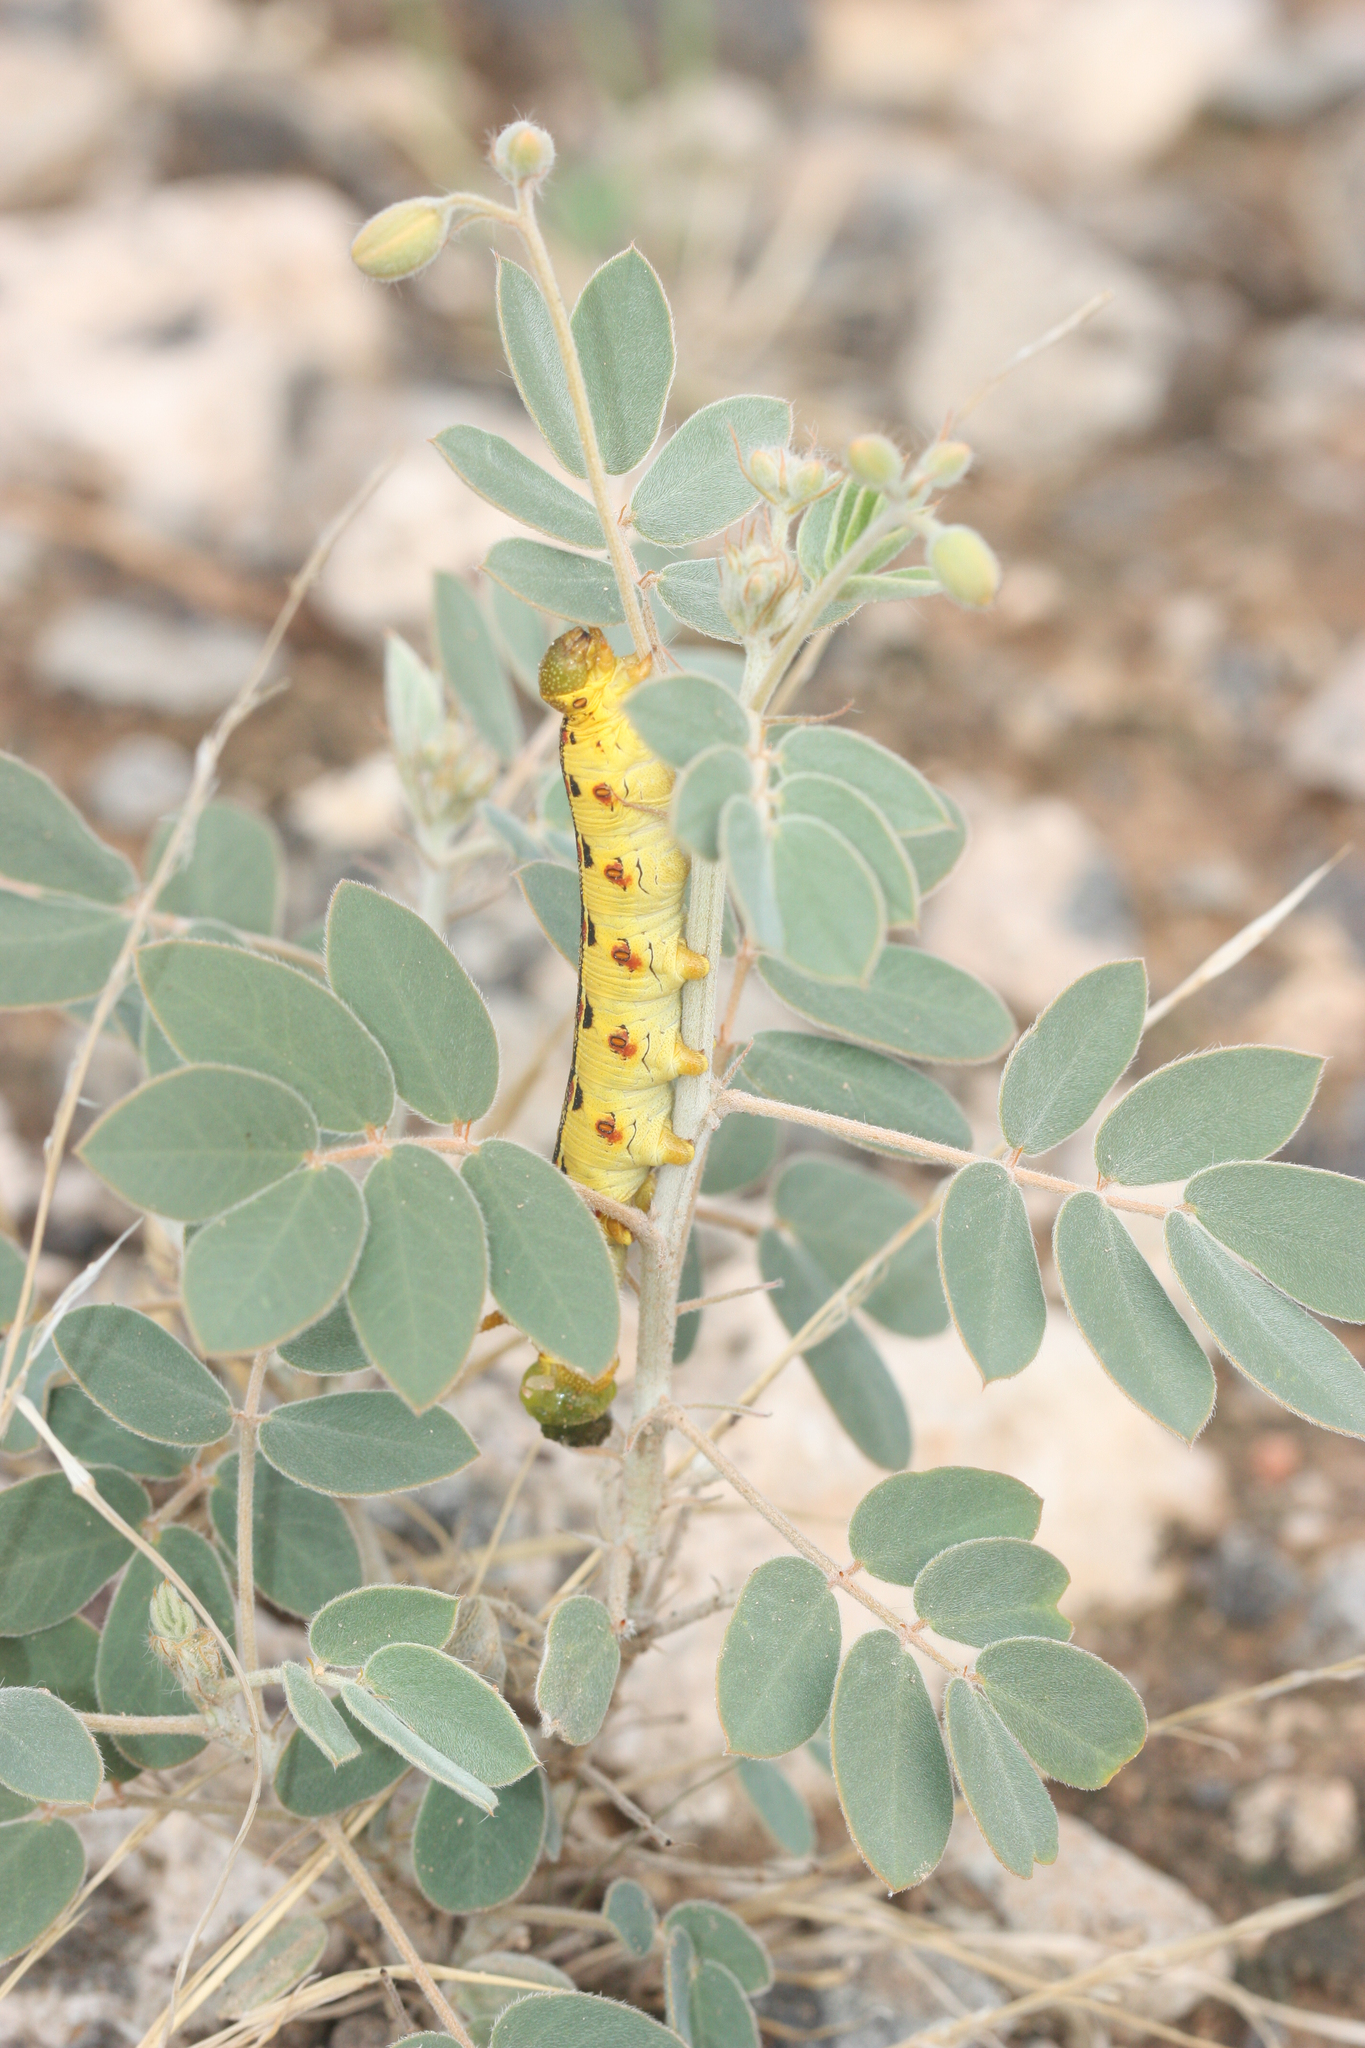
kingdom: Plantae
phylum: Tracheophyta
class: Magnoliopsida
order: Fabales
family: Fabaceae
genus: Senna
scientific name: Senna covesii
